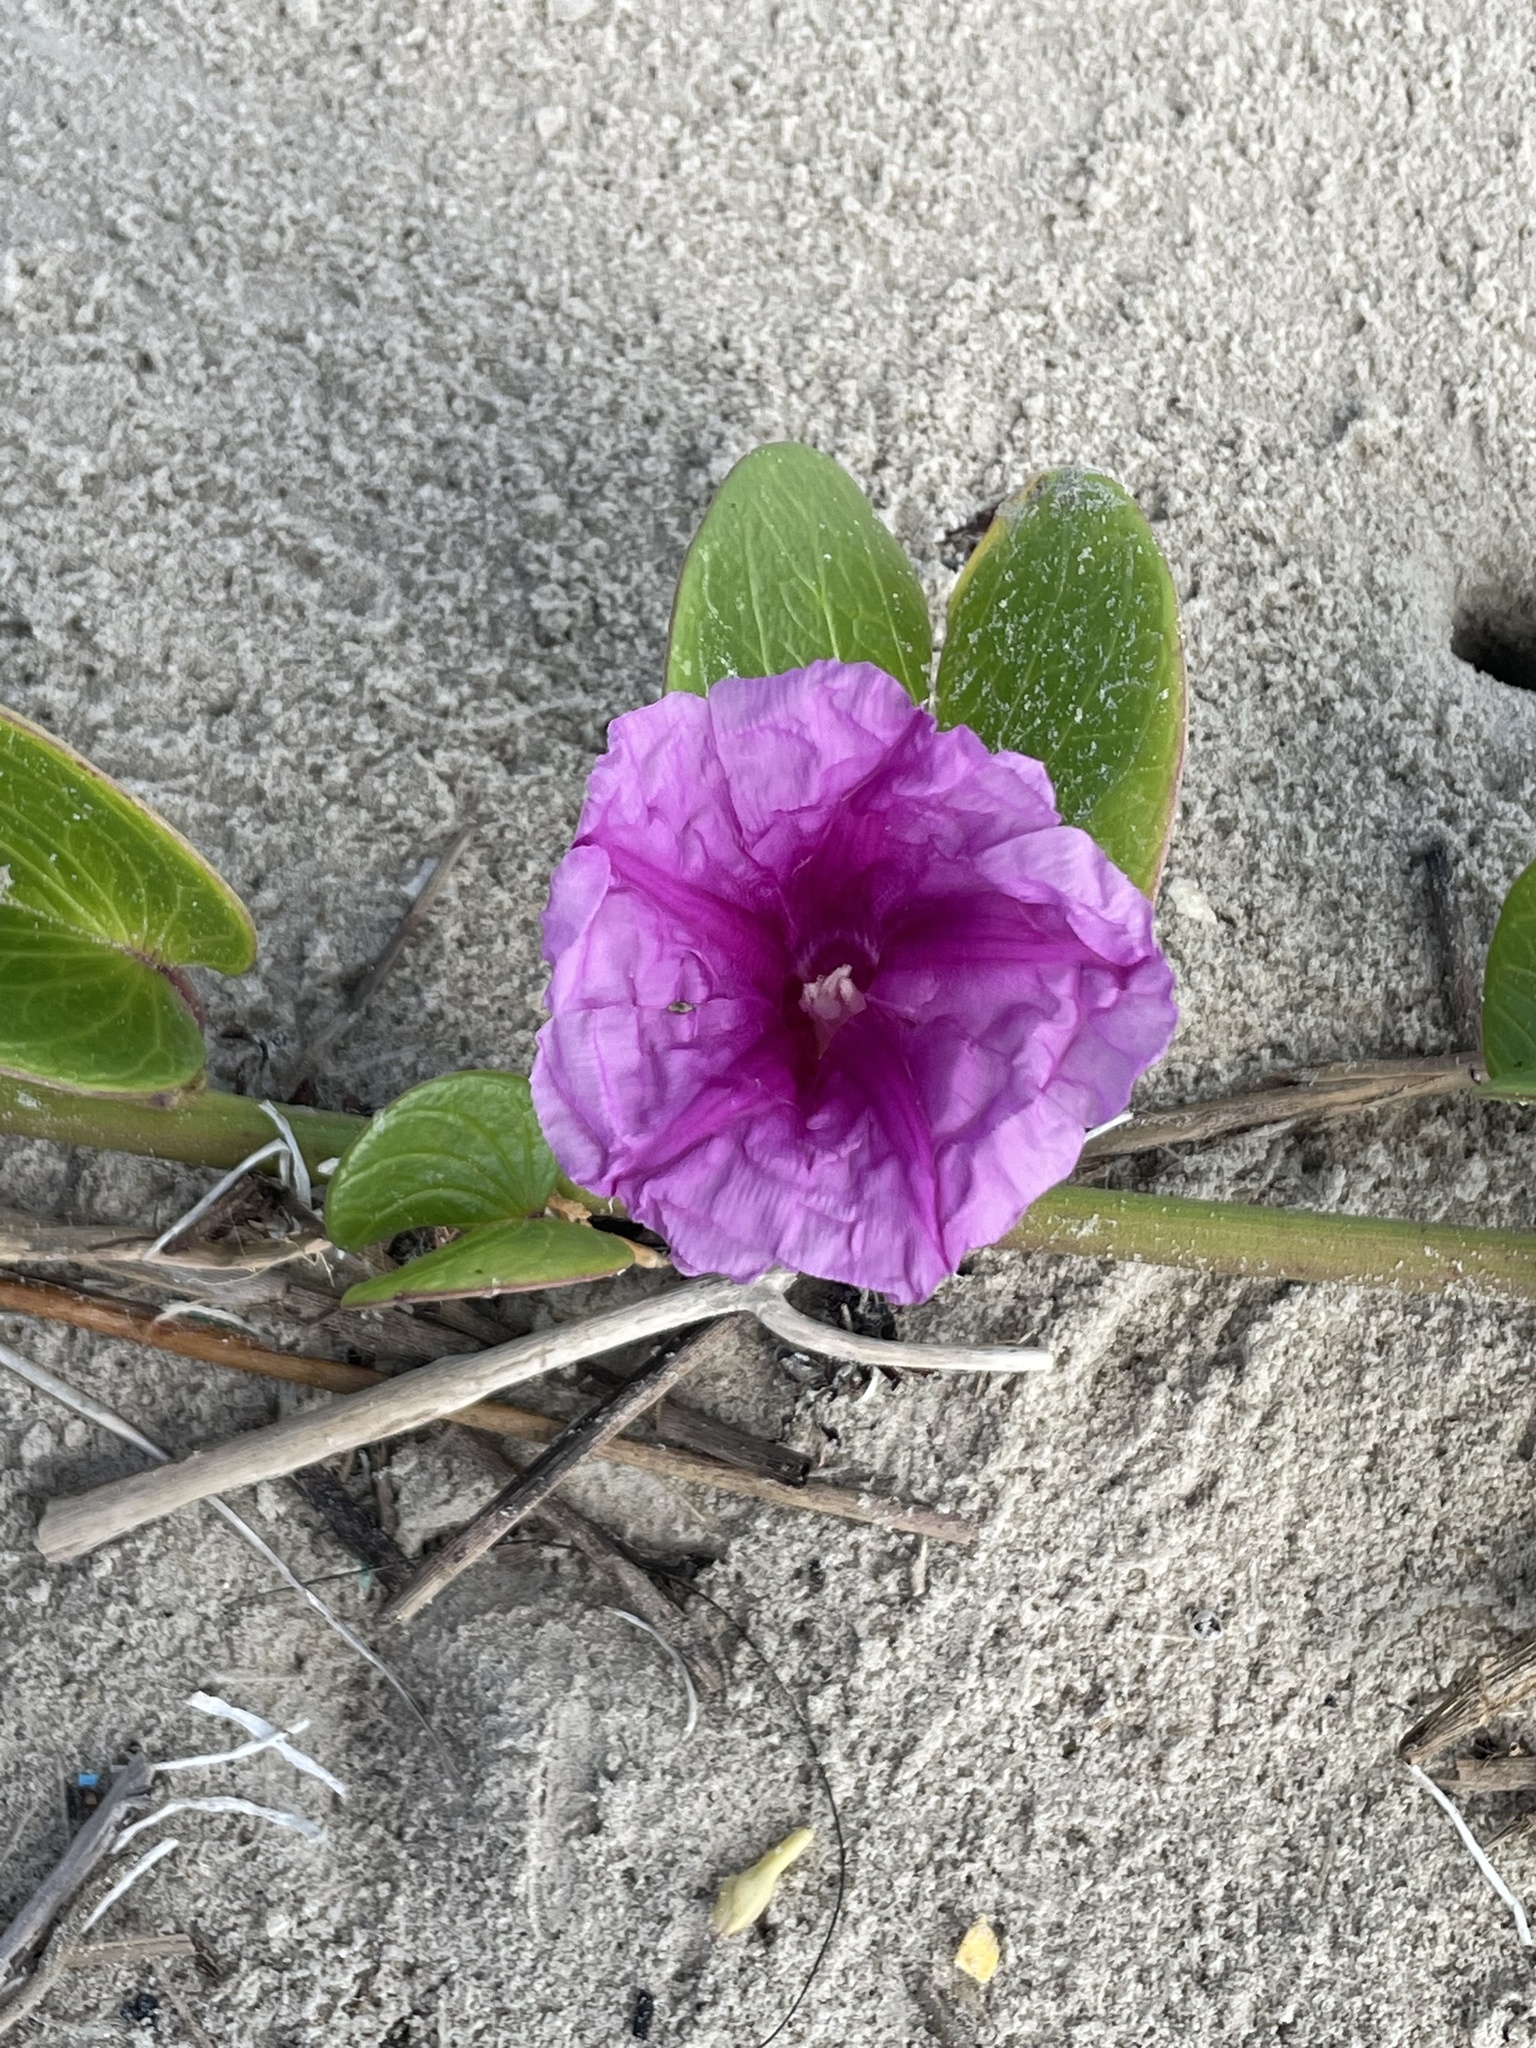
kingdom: Plantae
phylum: Tracheophyta
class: Magnoliopsida
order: Solanales
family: Convolvulaceae
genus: Ipomoea
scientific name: Ipomoea pes-caprae
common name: Beach morning glory
